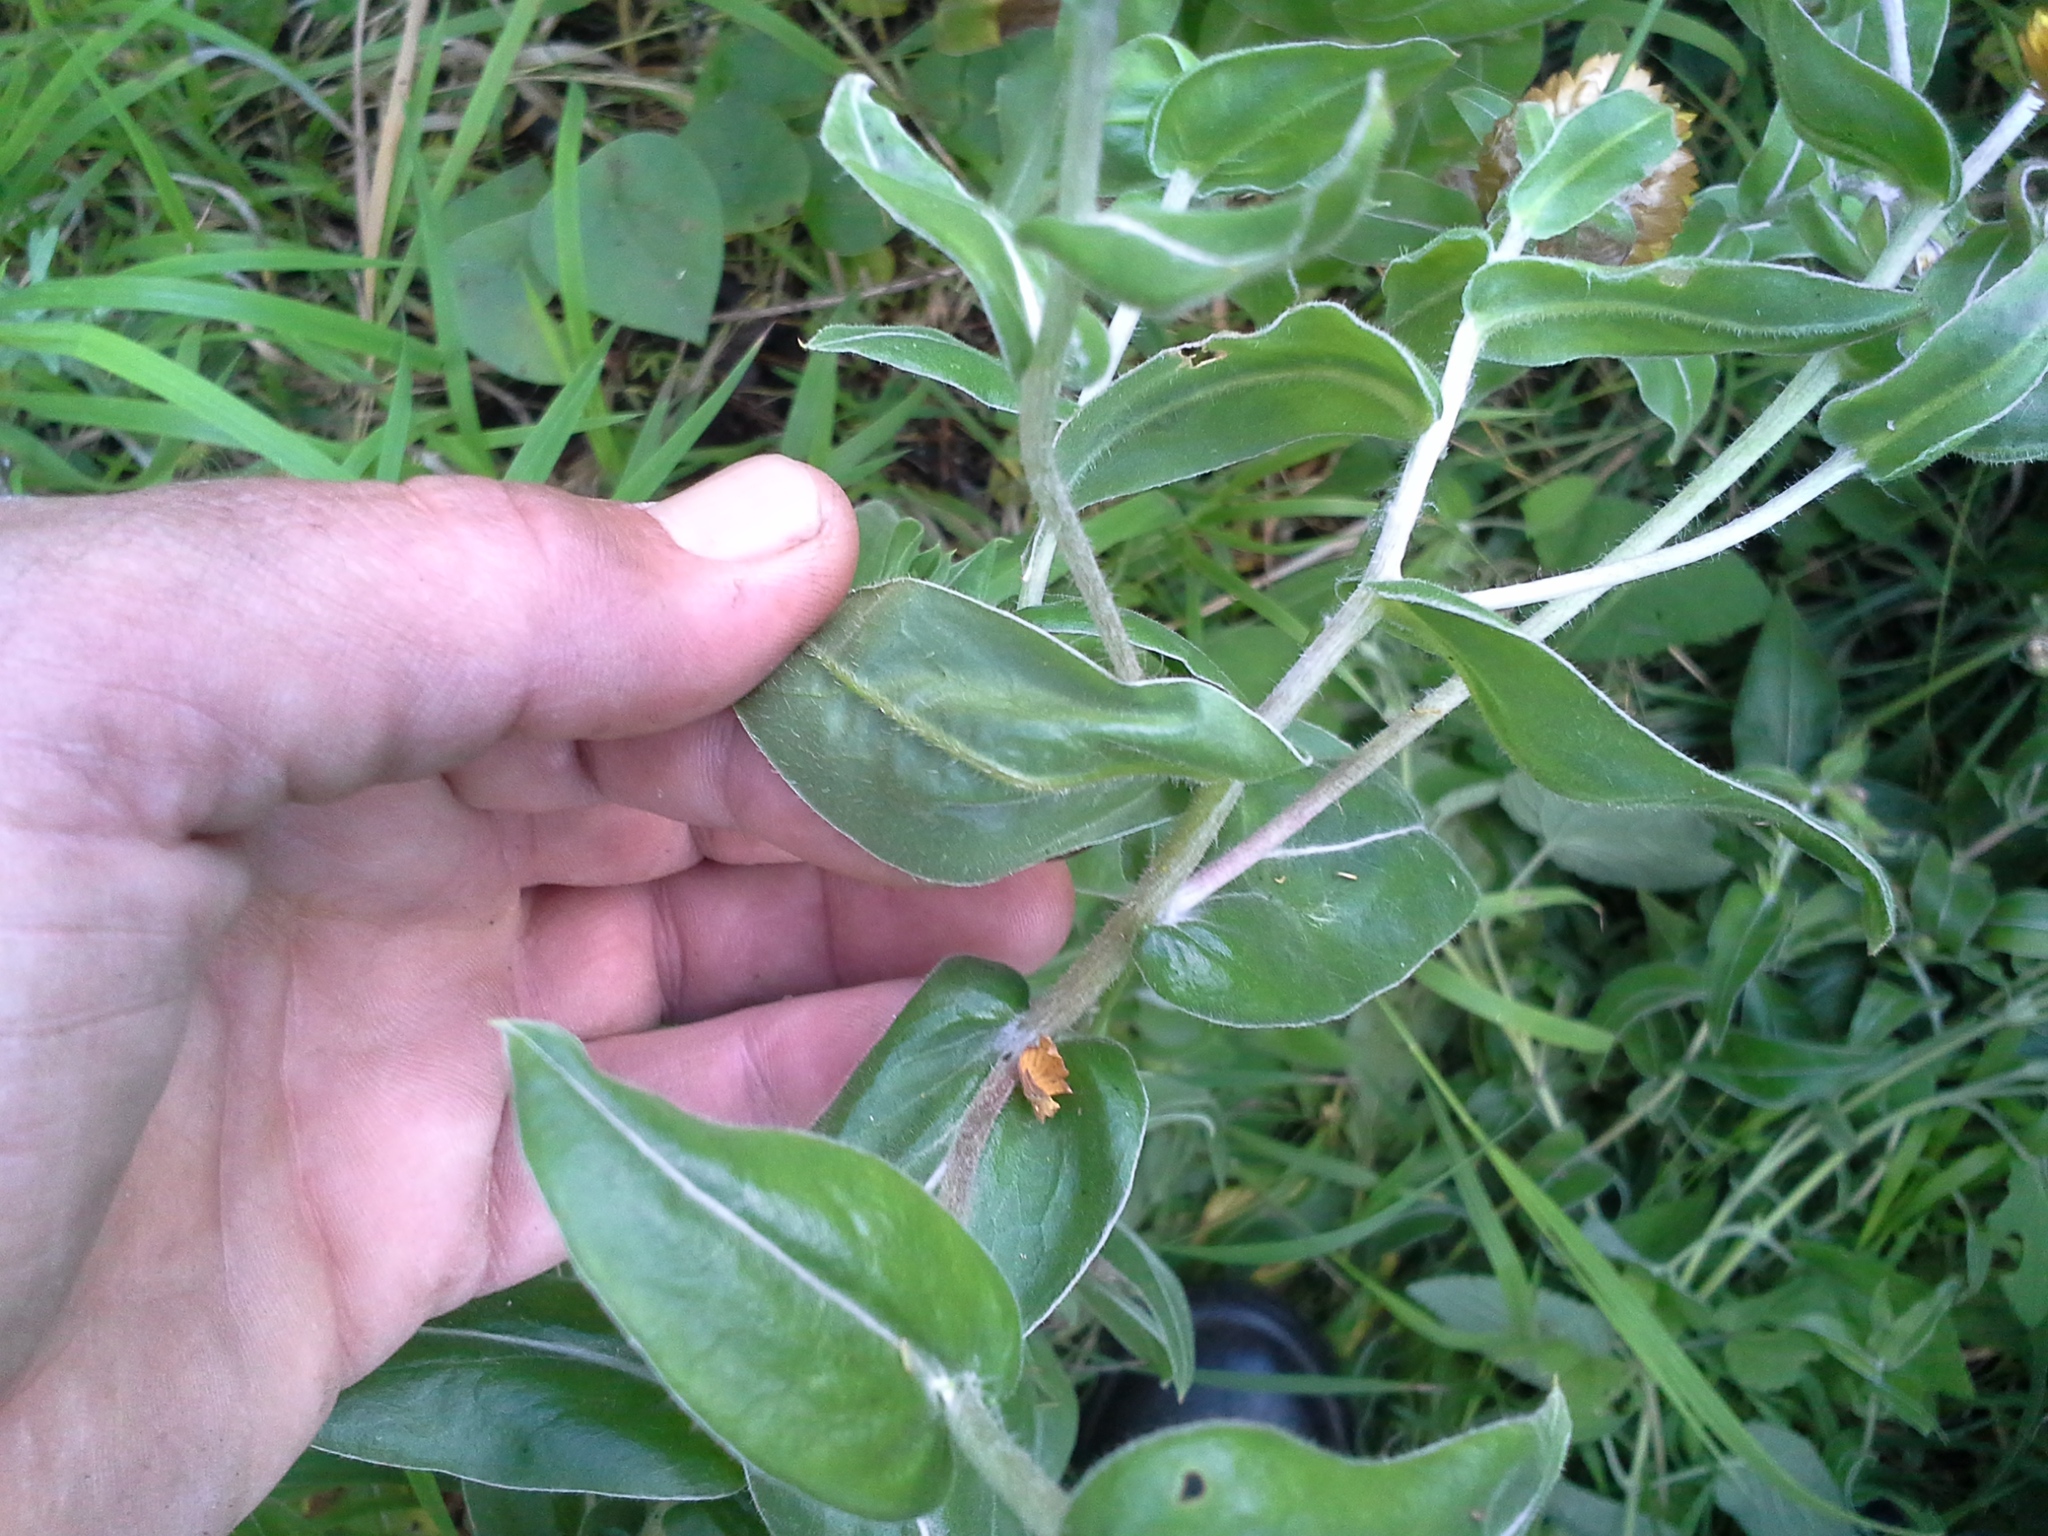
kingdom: Plantae
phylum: Tracheophyta
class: Magnoliopsida
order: Asterales
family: Asteraceae
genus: Helichrysum
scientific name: Helichrysum aureolum
